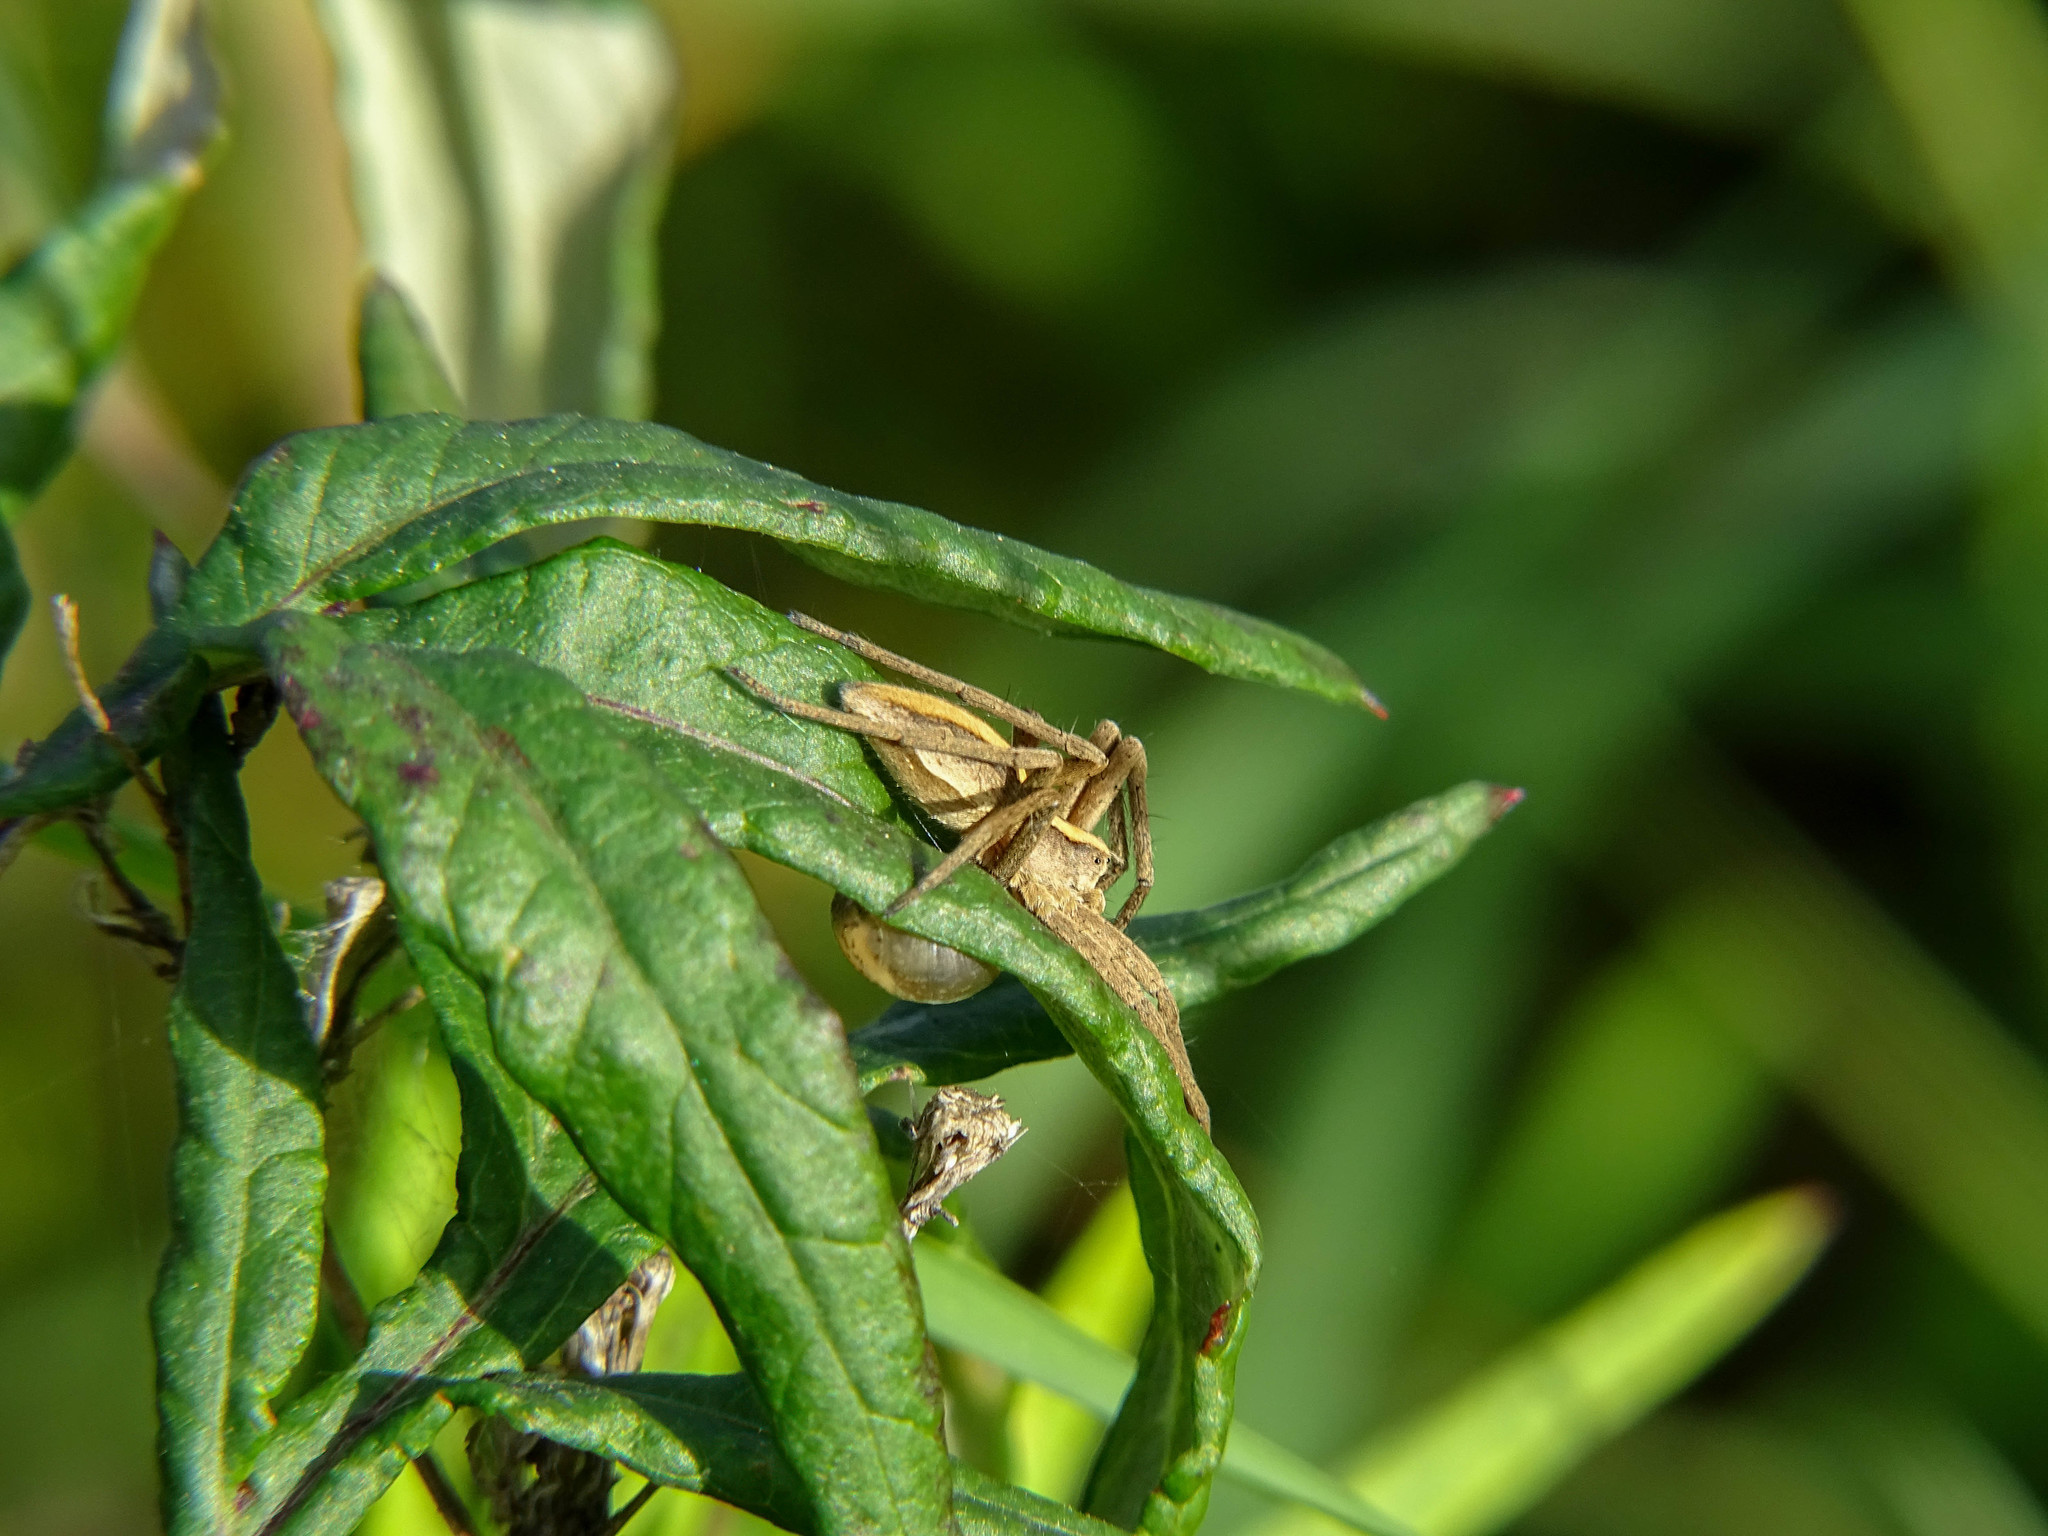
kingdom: Animalia
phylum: Arthropoda
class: Arachnida
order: Araneae
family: Pisauridae
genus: Pisaura
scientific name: Pisaura mirabilis
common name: Tent spider
